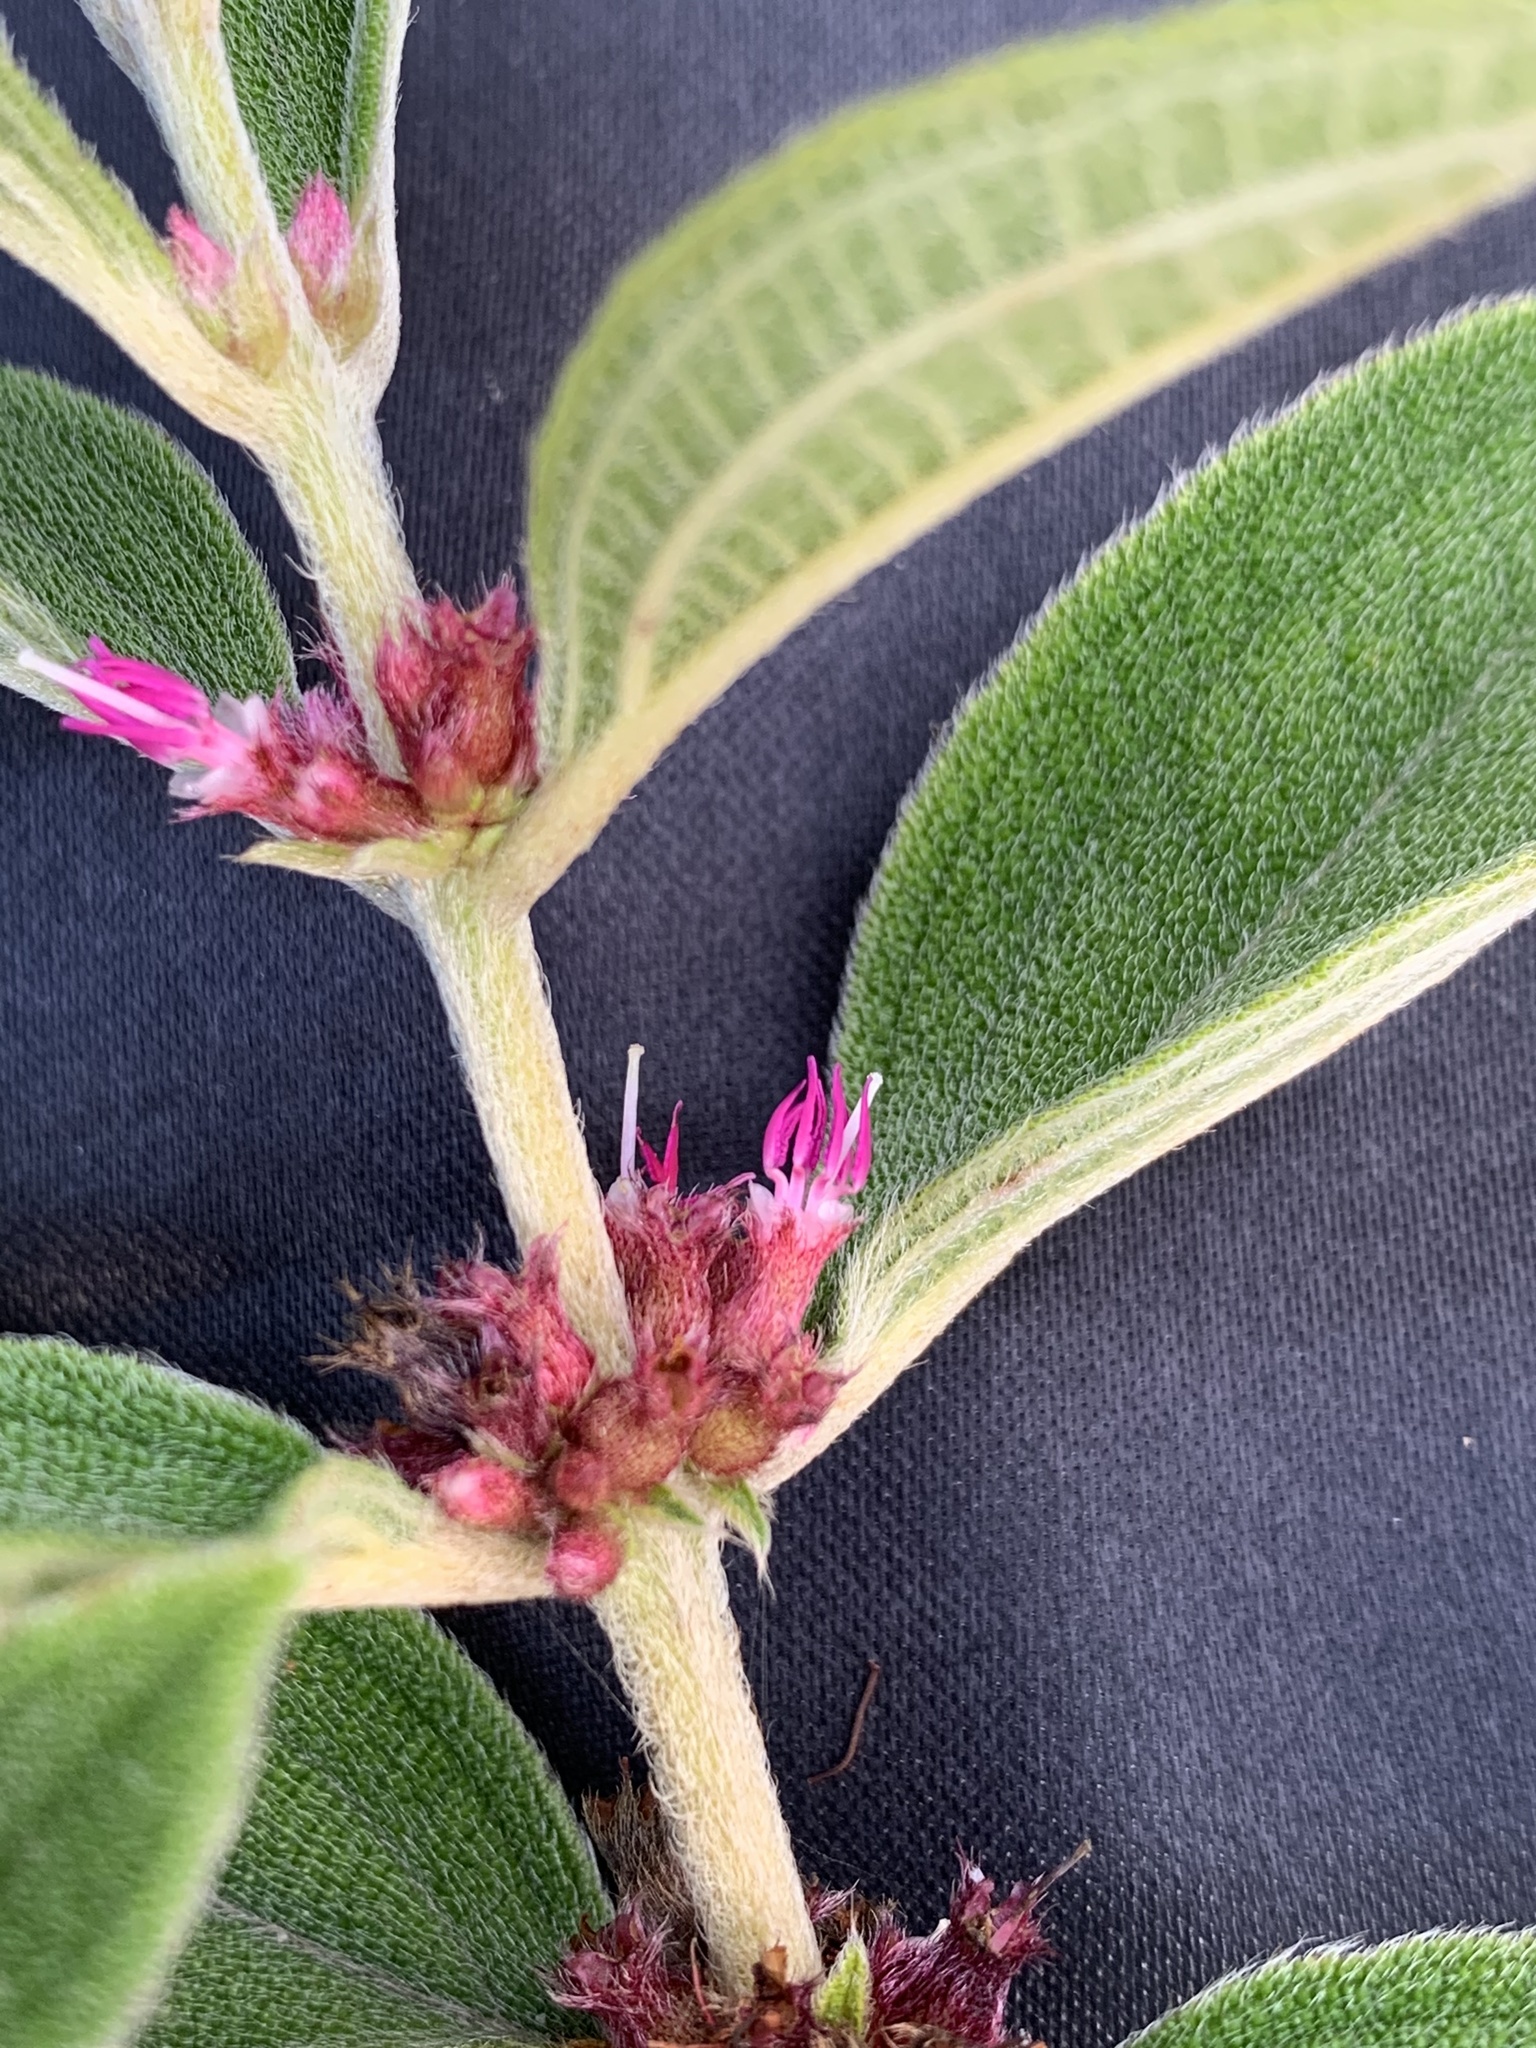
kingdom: Plantae
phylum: Tracheophyta
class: Magnoliopsida
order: Myrtales
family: Melastomataceae
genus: Miconia
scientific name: Miconia rubra
